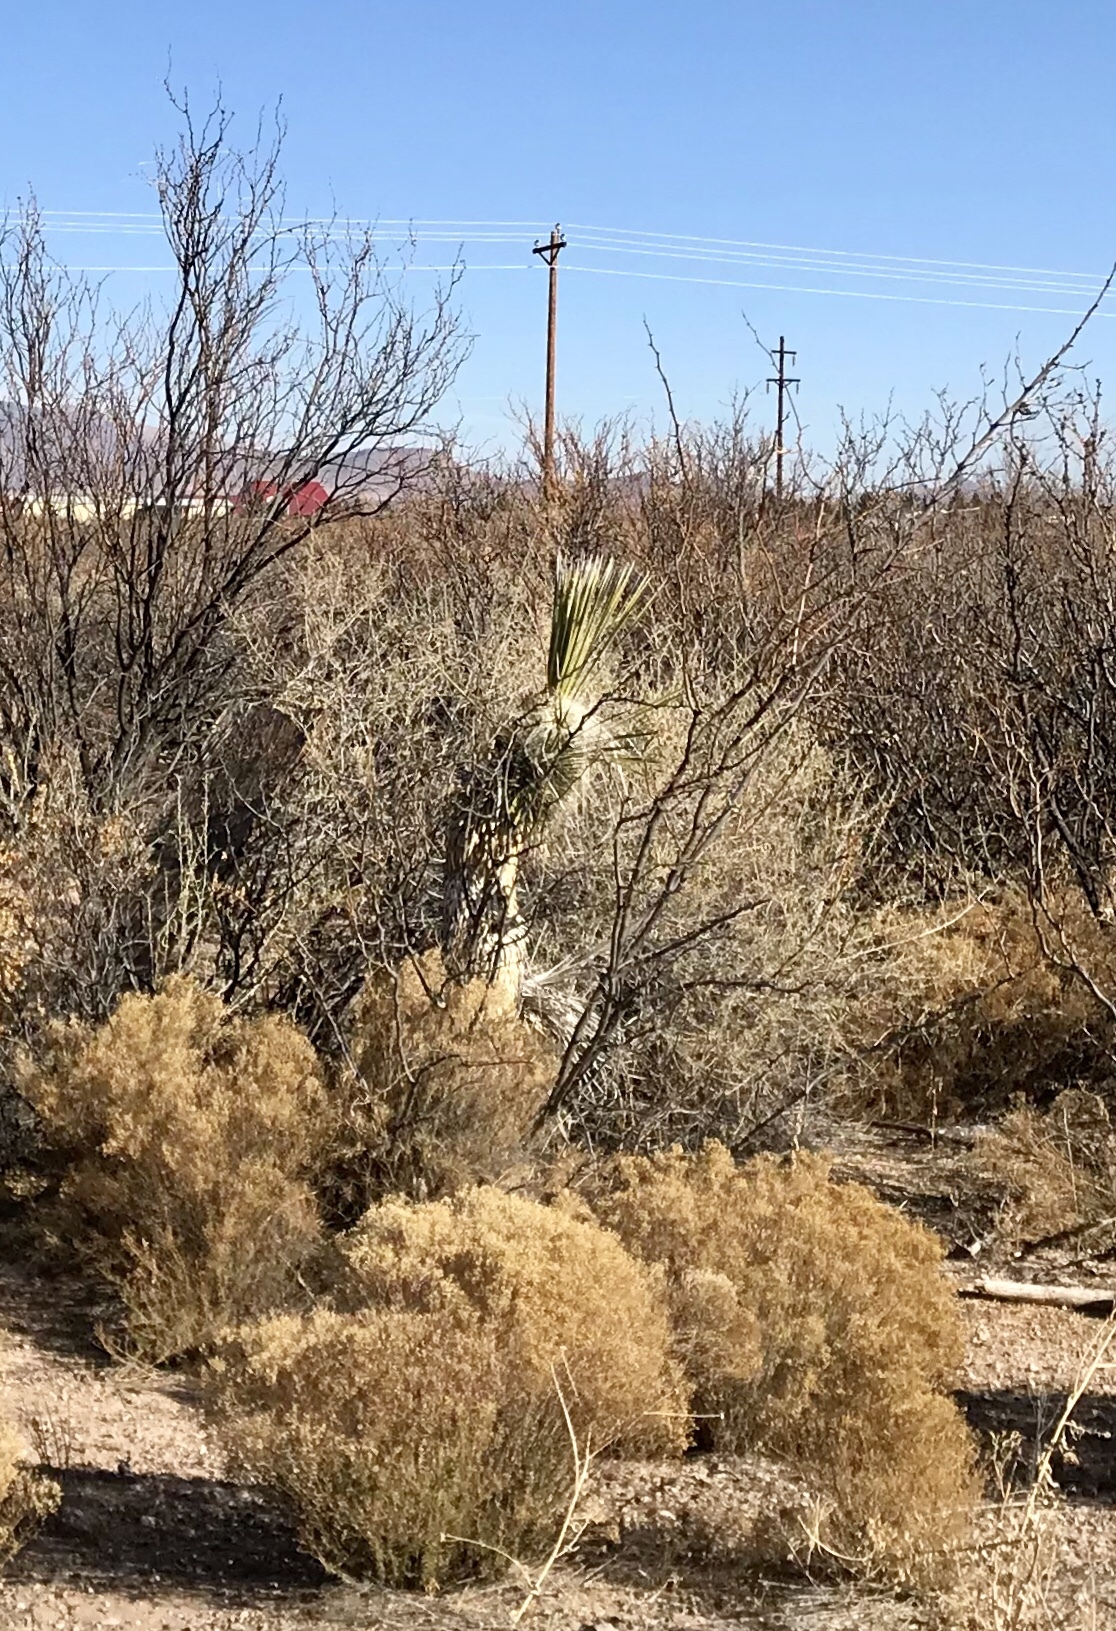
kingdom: Plantae
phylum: Tracheophyta
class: Liliopsida
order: Asparagales
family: Asparagaceae
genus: Yucca
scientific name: Yucca elata
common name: Palmella
